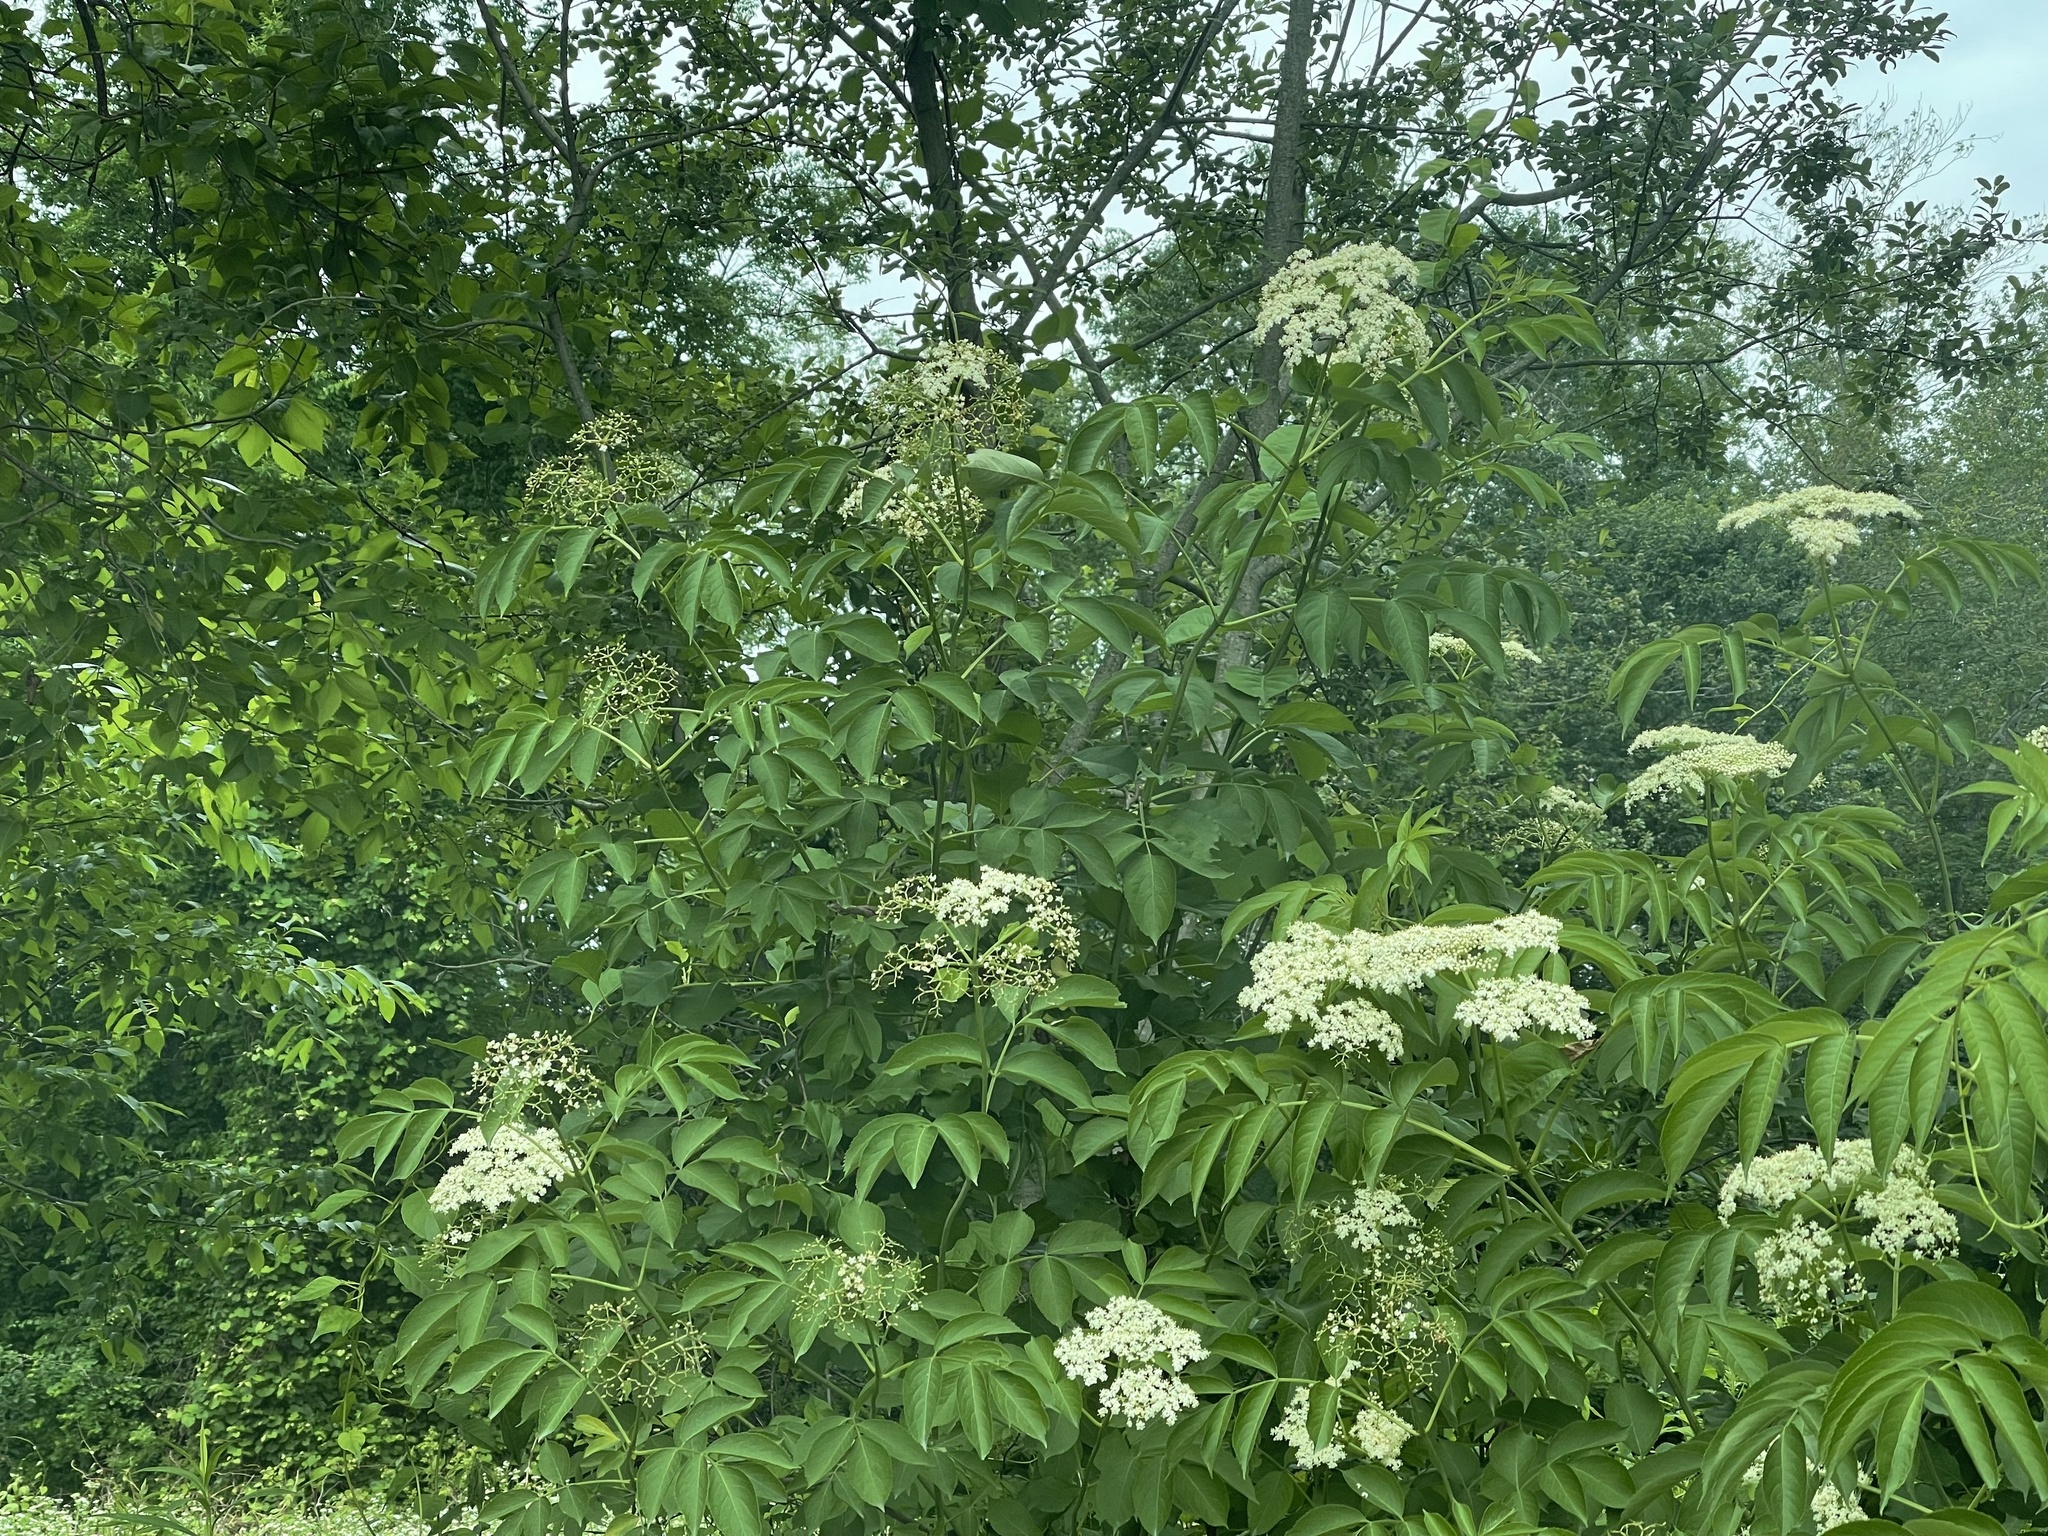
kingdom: Plantae
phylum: Tracheophyta
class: Magnoliopsida
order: Dipsacales
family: Viburnaceae
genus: Sambucus
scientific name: Sambucus canadensis
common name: American elder
